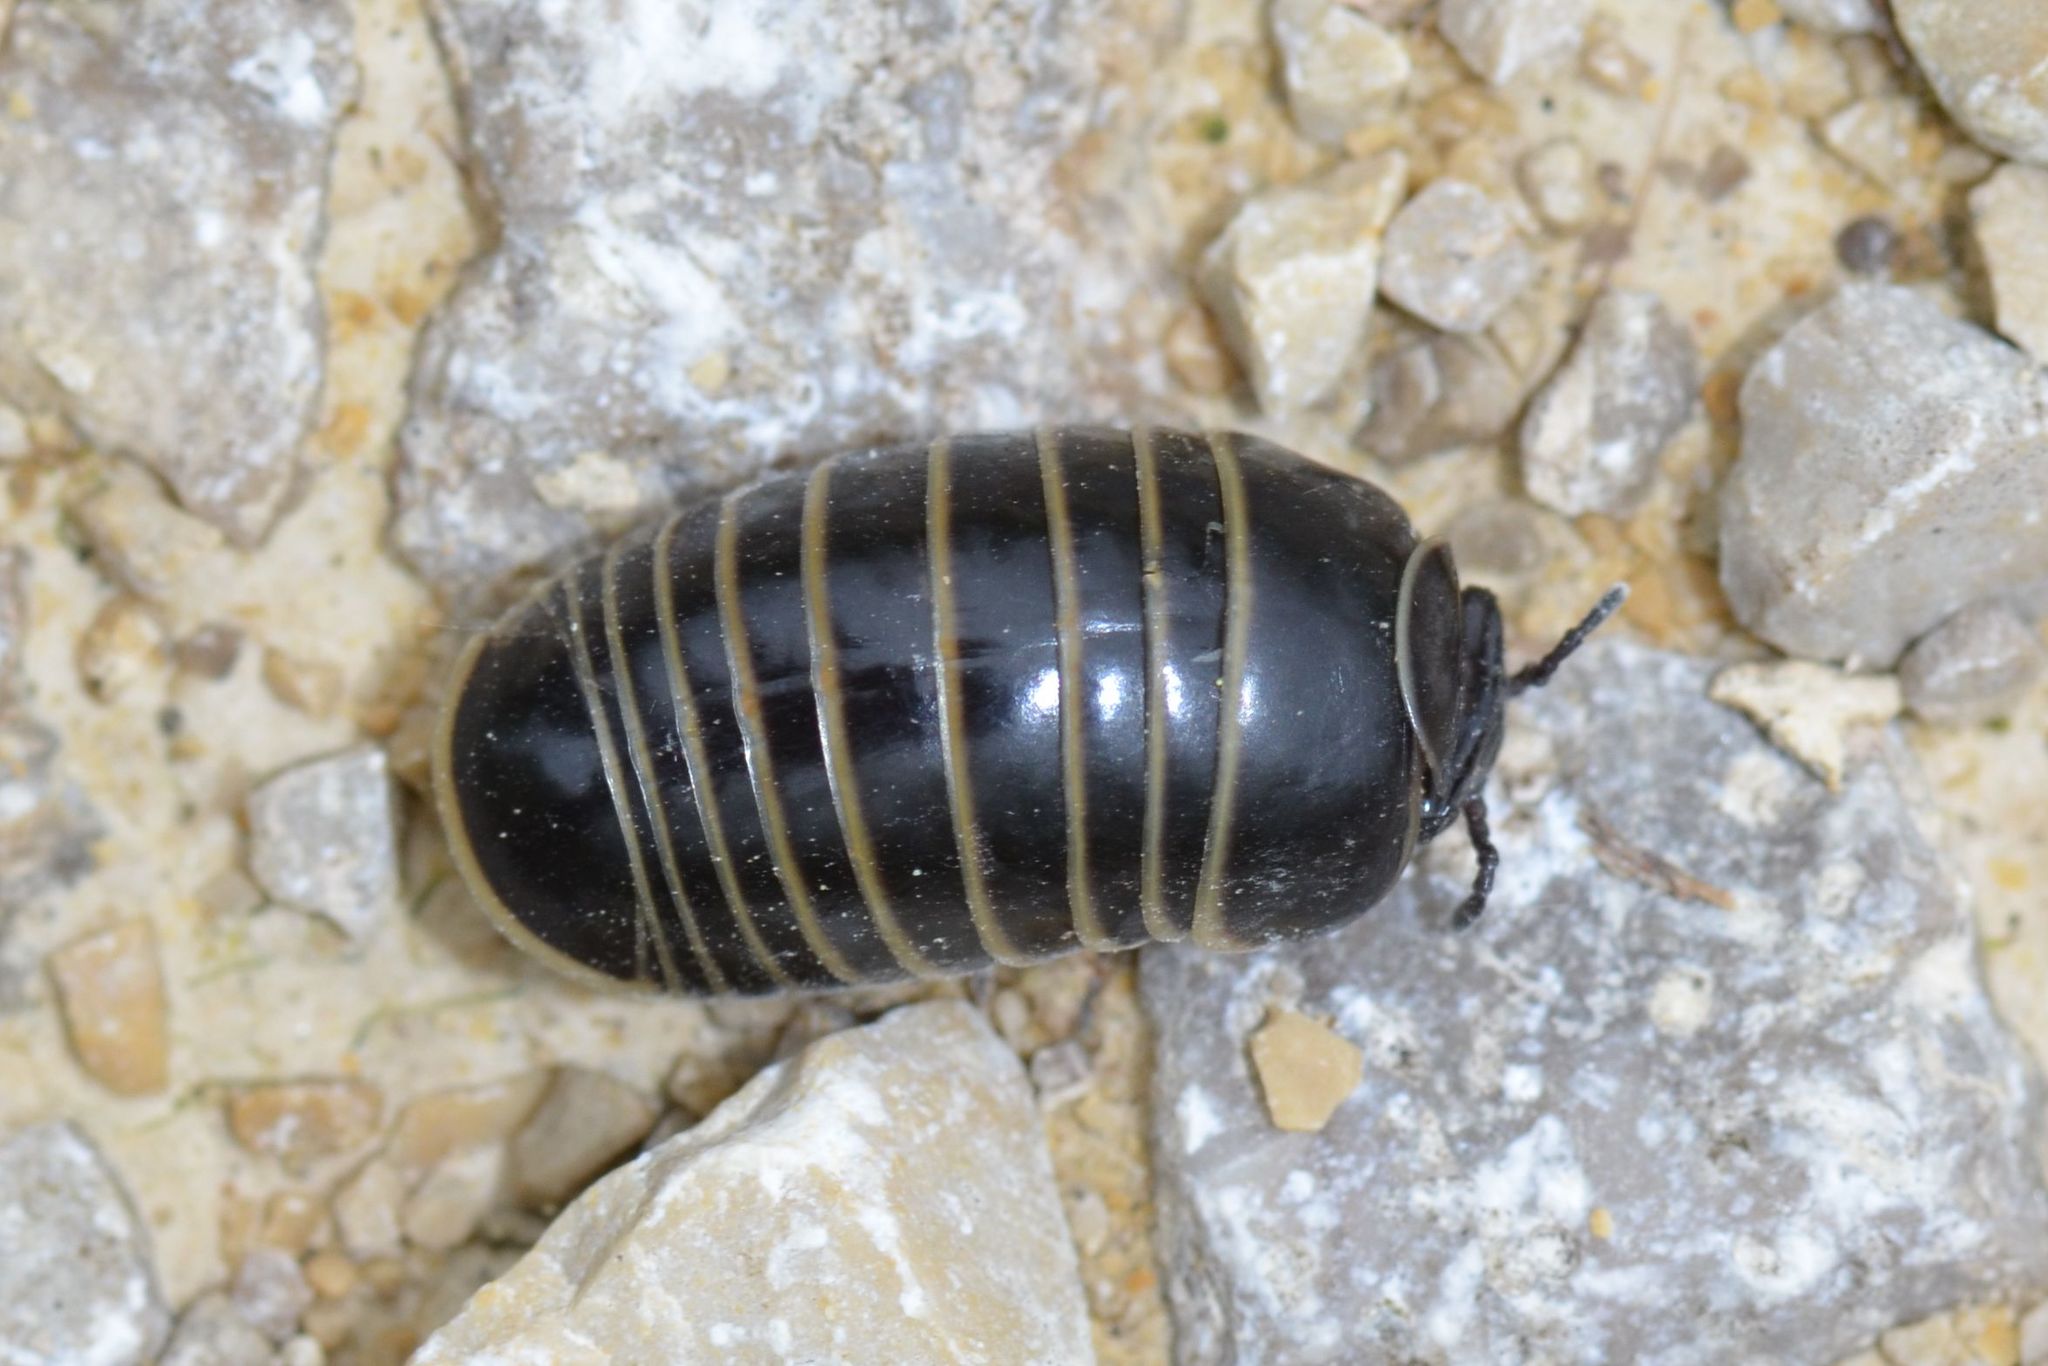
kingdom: Animalia
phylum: Arthropoda
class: Diplopoda
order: Glomerida
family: Glomeridae
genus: Glomeris
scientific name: Glomeris marginata
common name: Bordered pill millipede
